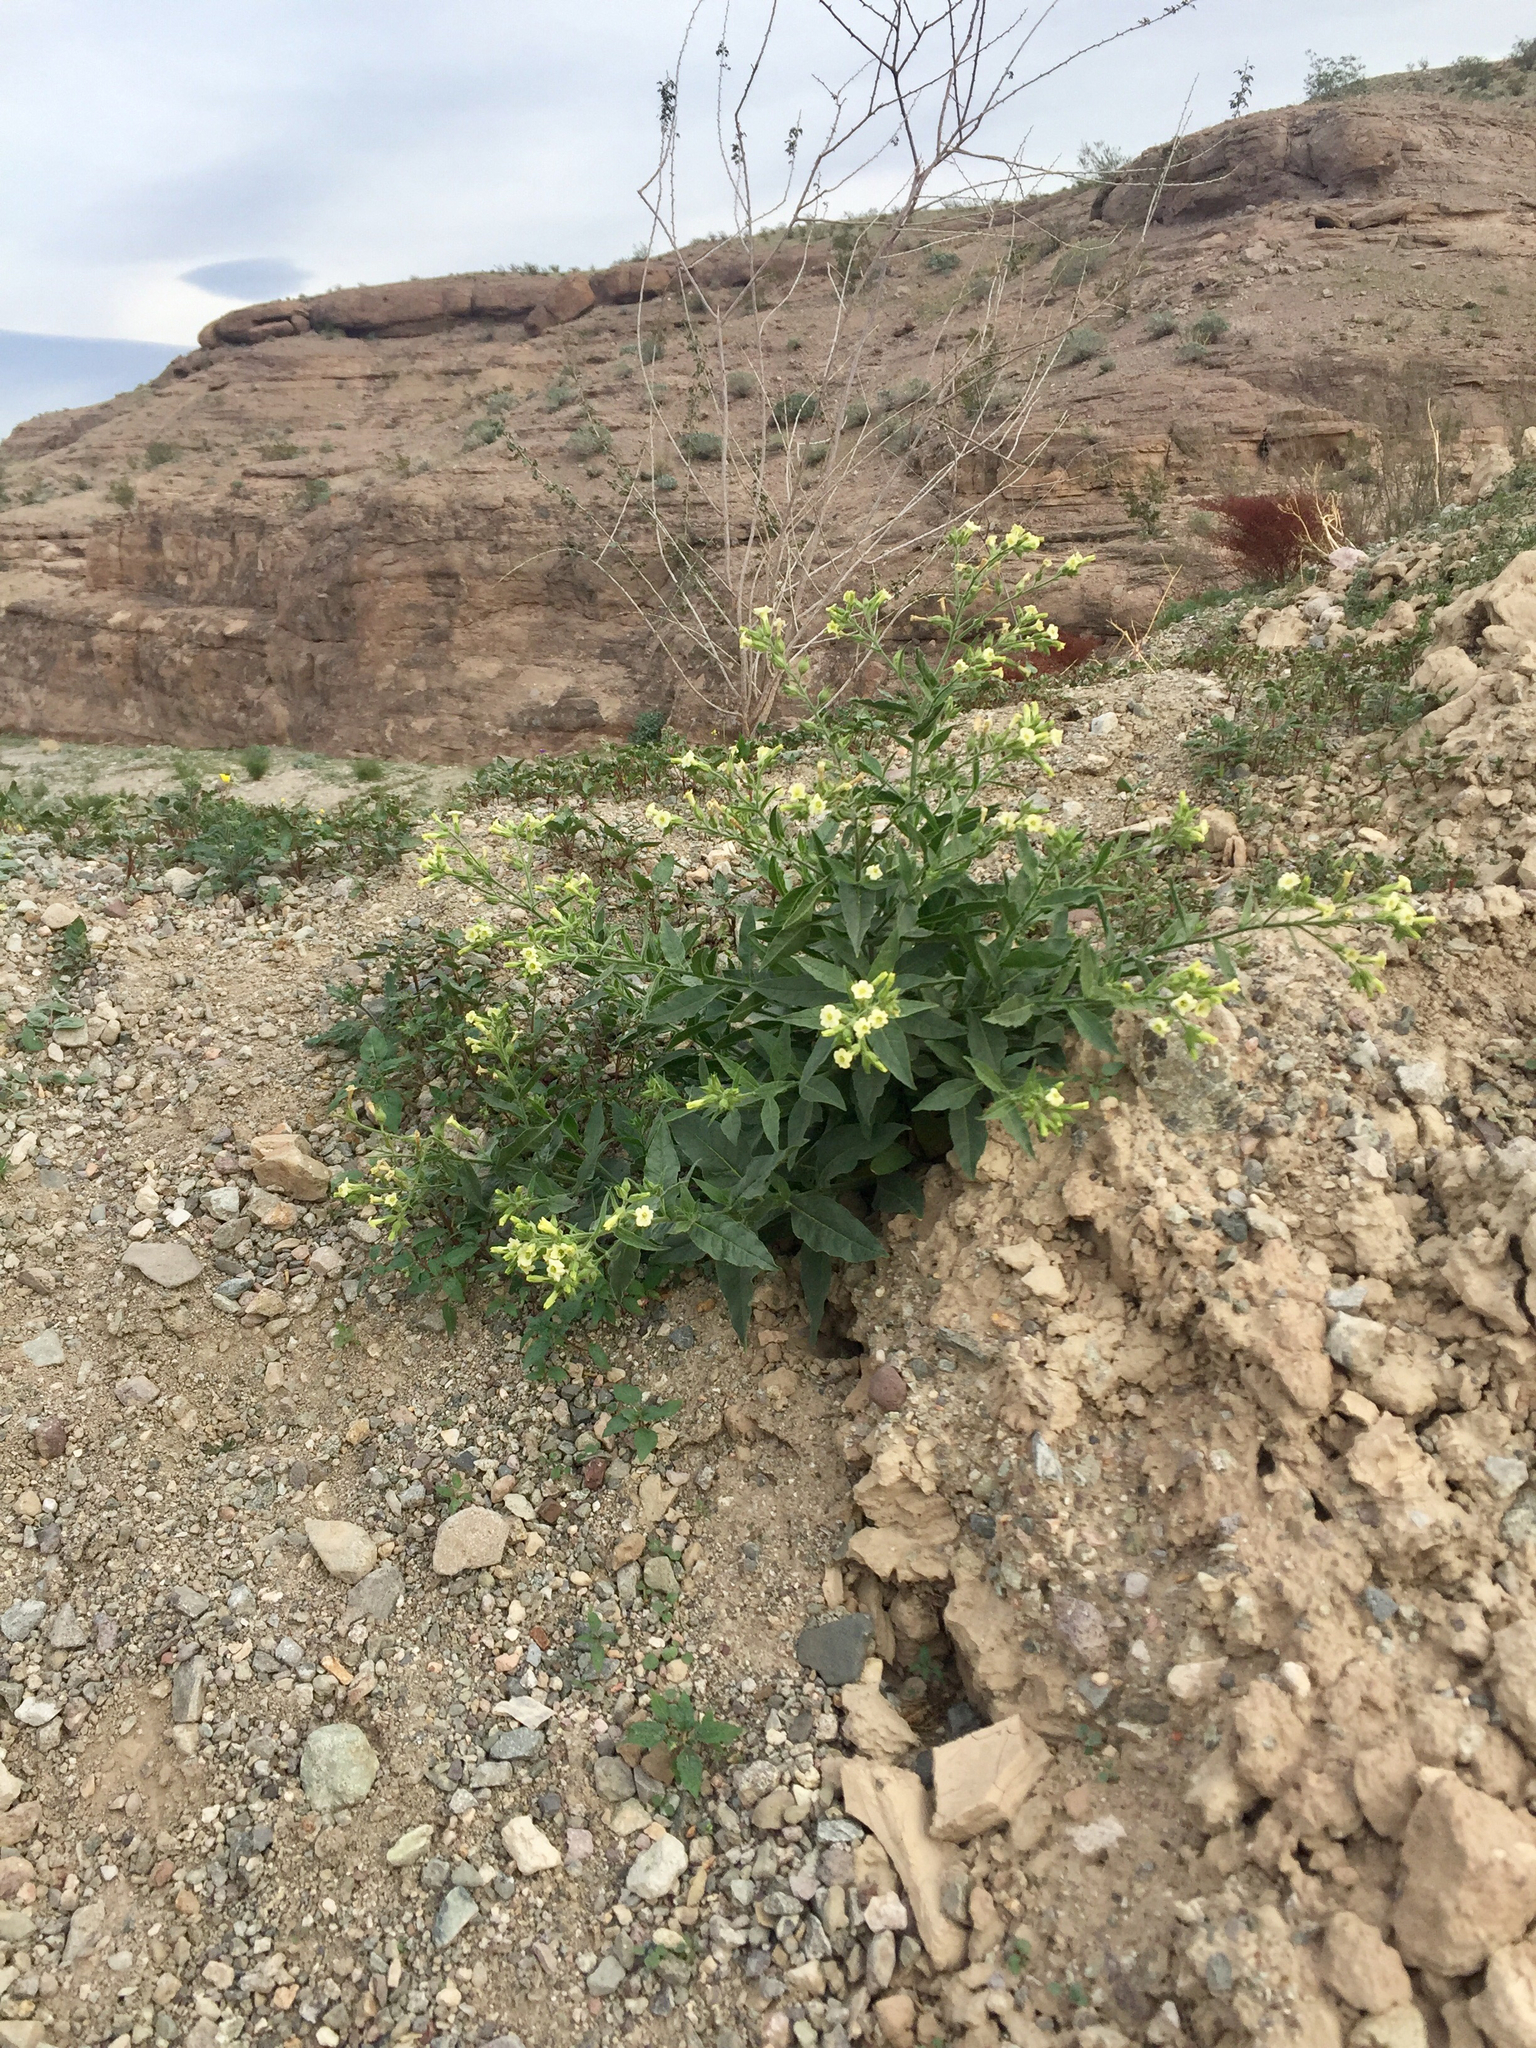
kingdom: Plantae
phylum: Tracheophyta
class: Magnoliopsida
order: Solanales
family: Solanaceae
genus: Nicotiana
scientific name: Nicotiana obtusifolia
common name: Desert tobacco
